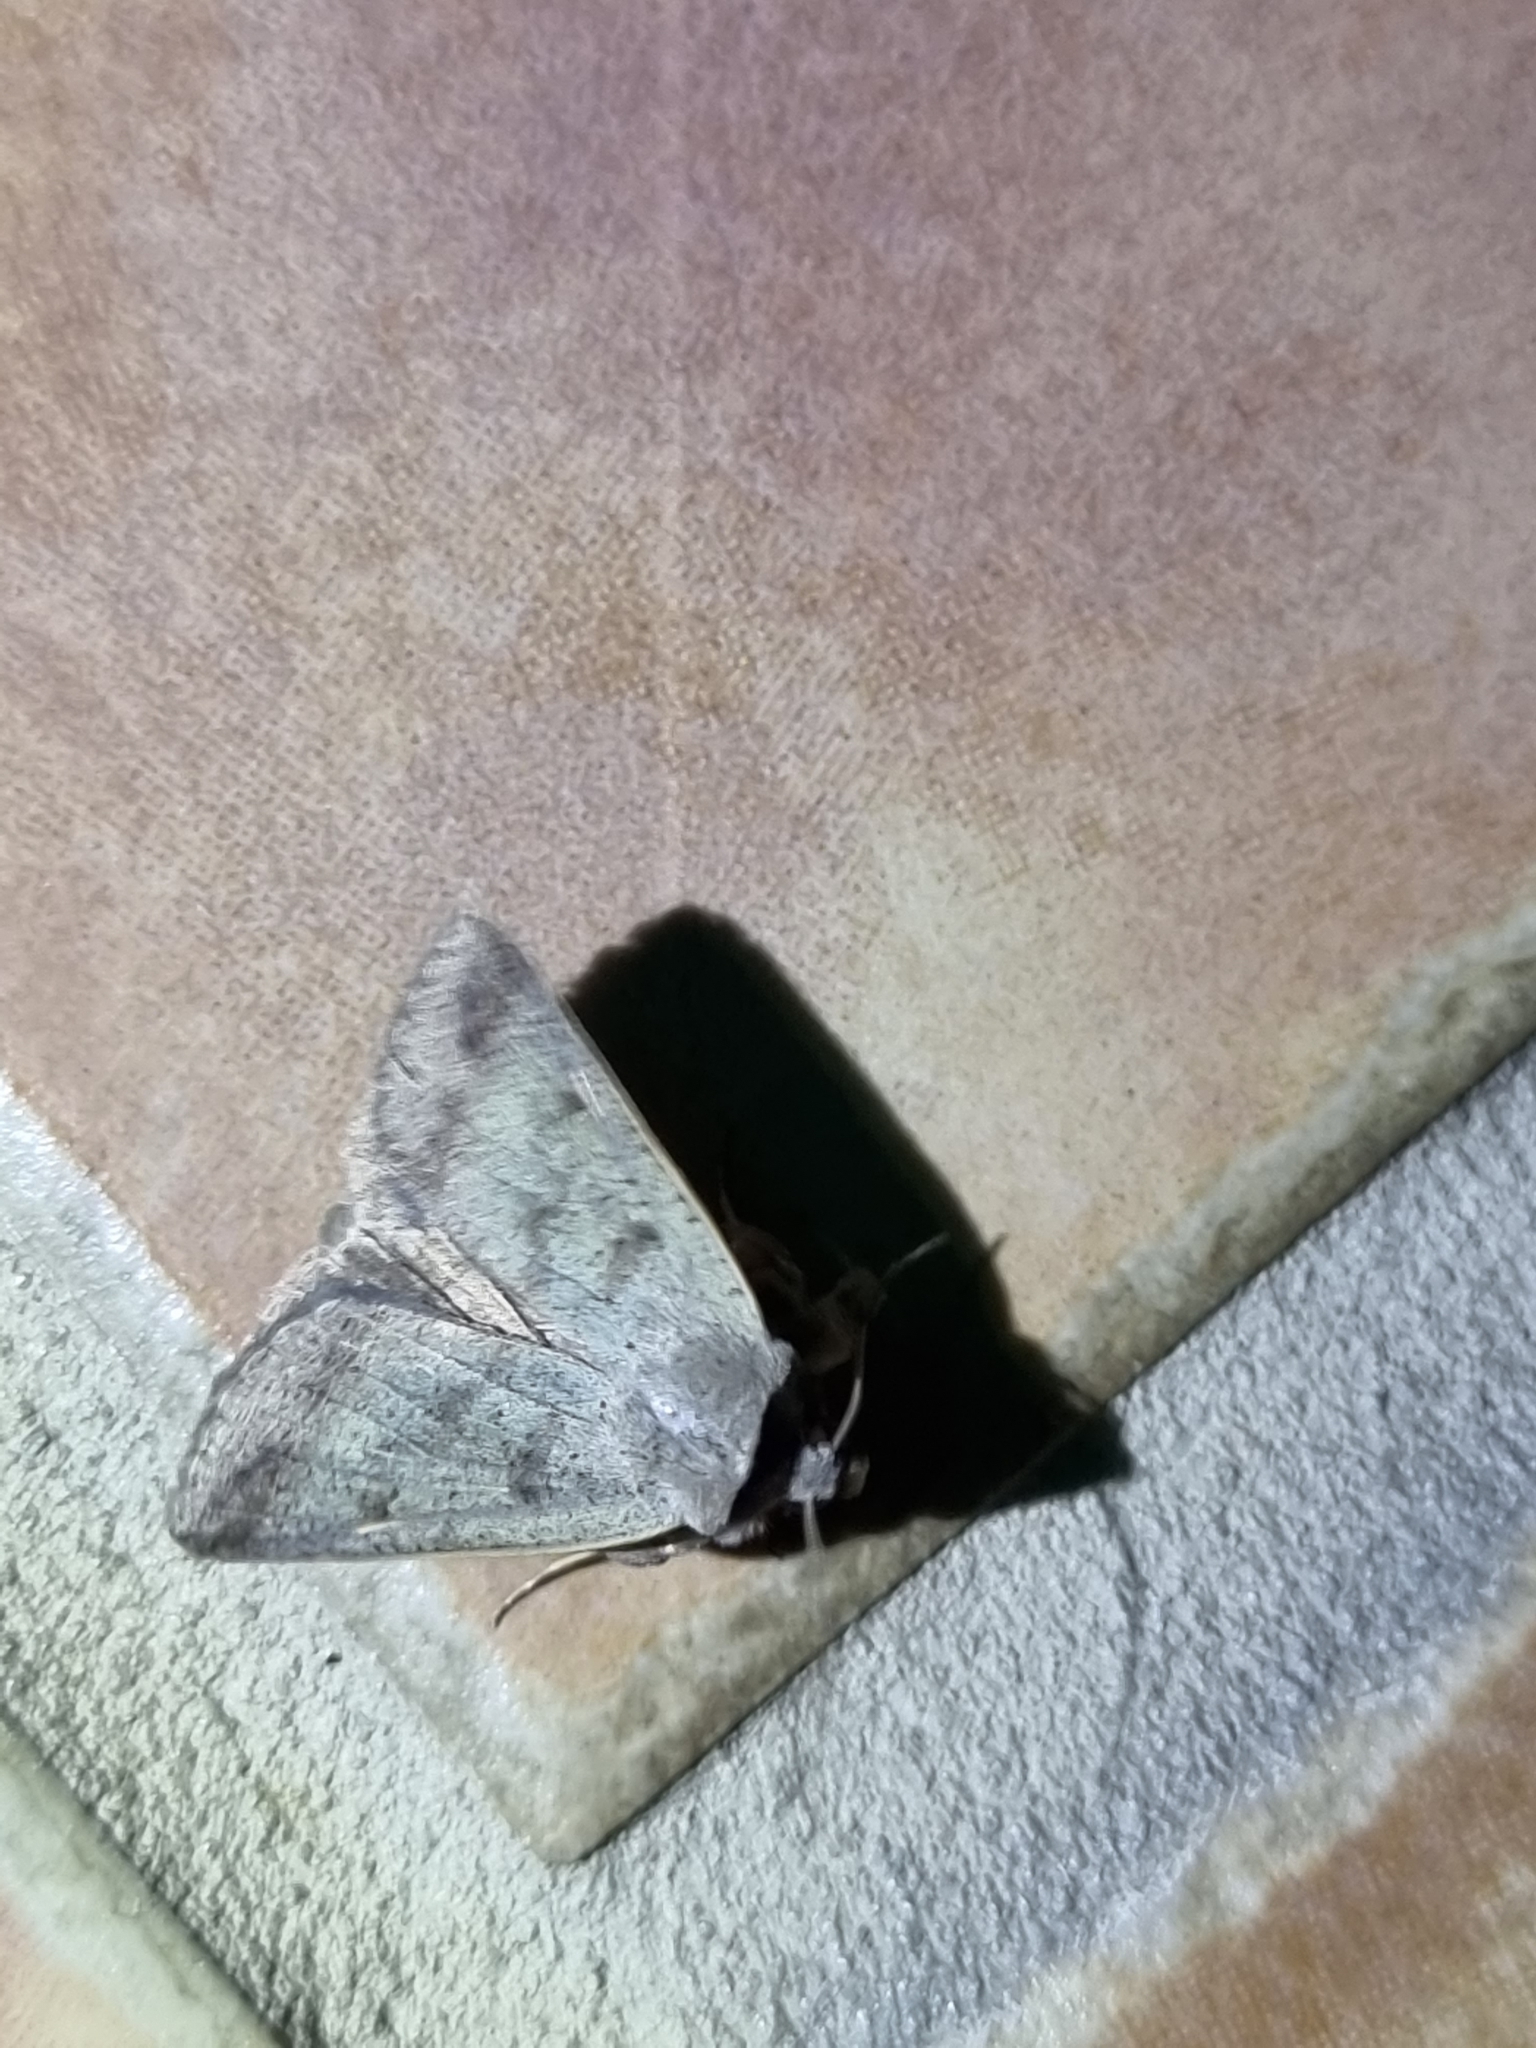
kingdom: Animalia
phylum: Arthropoda
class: Insecta
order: Lepidoptera
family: Erebidae
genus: Pantydia
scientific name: Pantydia sparsa
